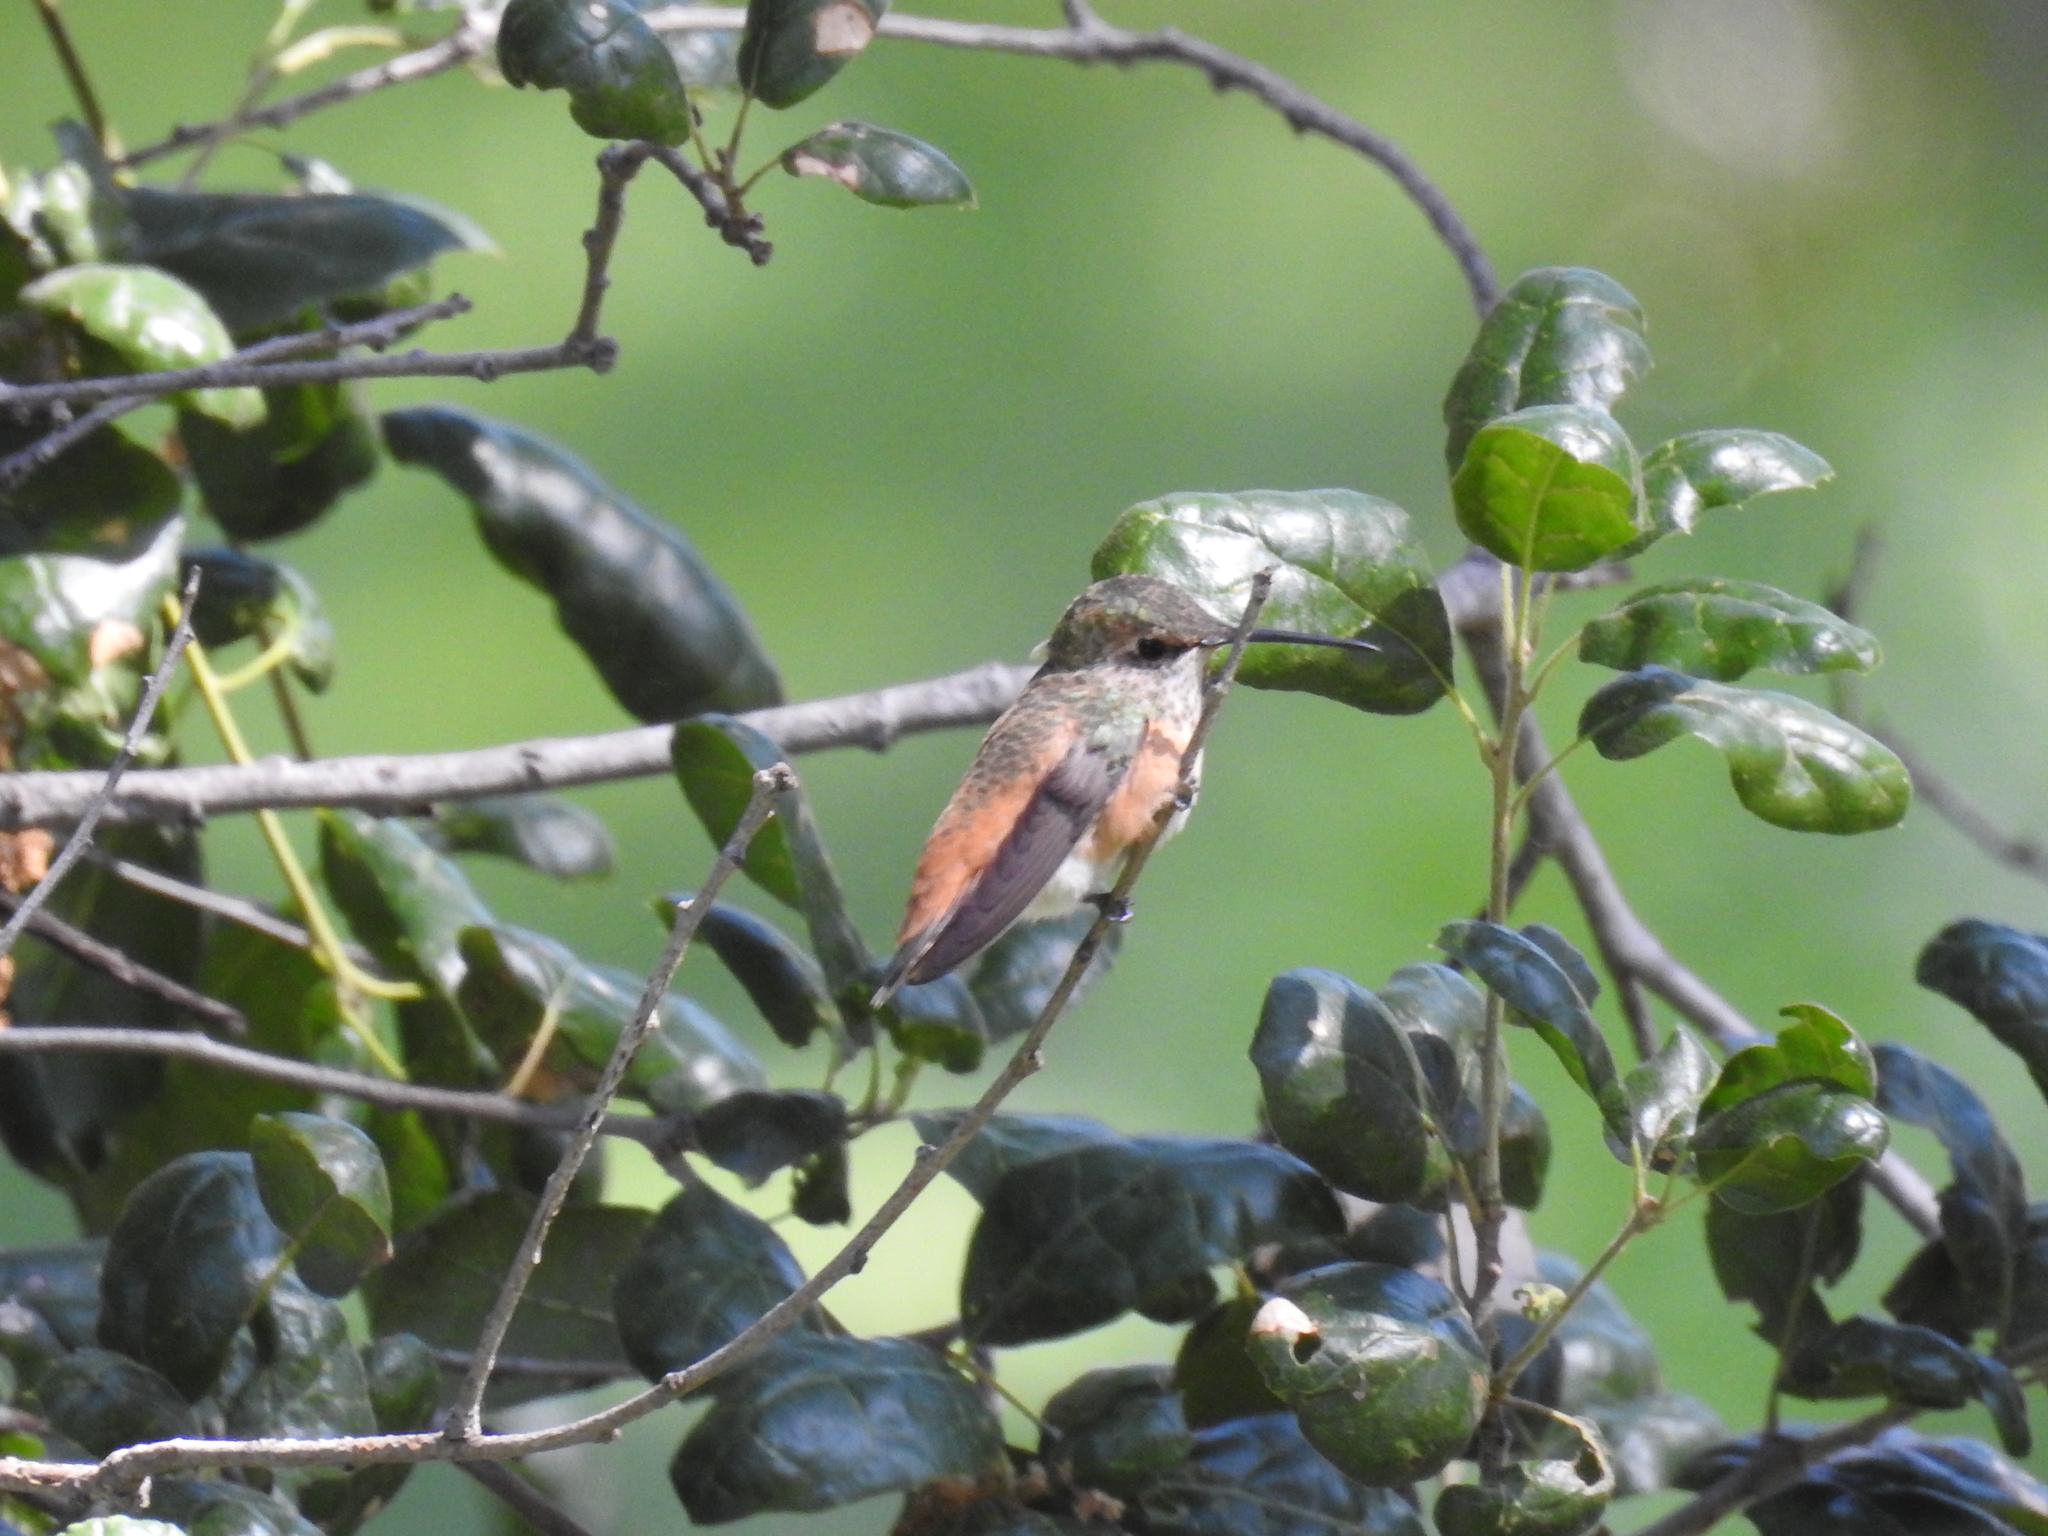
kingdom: Animalia
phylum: Chordata
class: Aves
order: Apodiformes
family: Trochilidae
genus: Selasphorus
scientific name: Selasphorus sasin
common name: Allen's hummingbird
